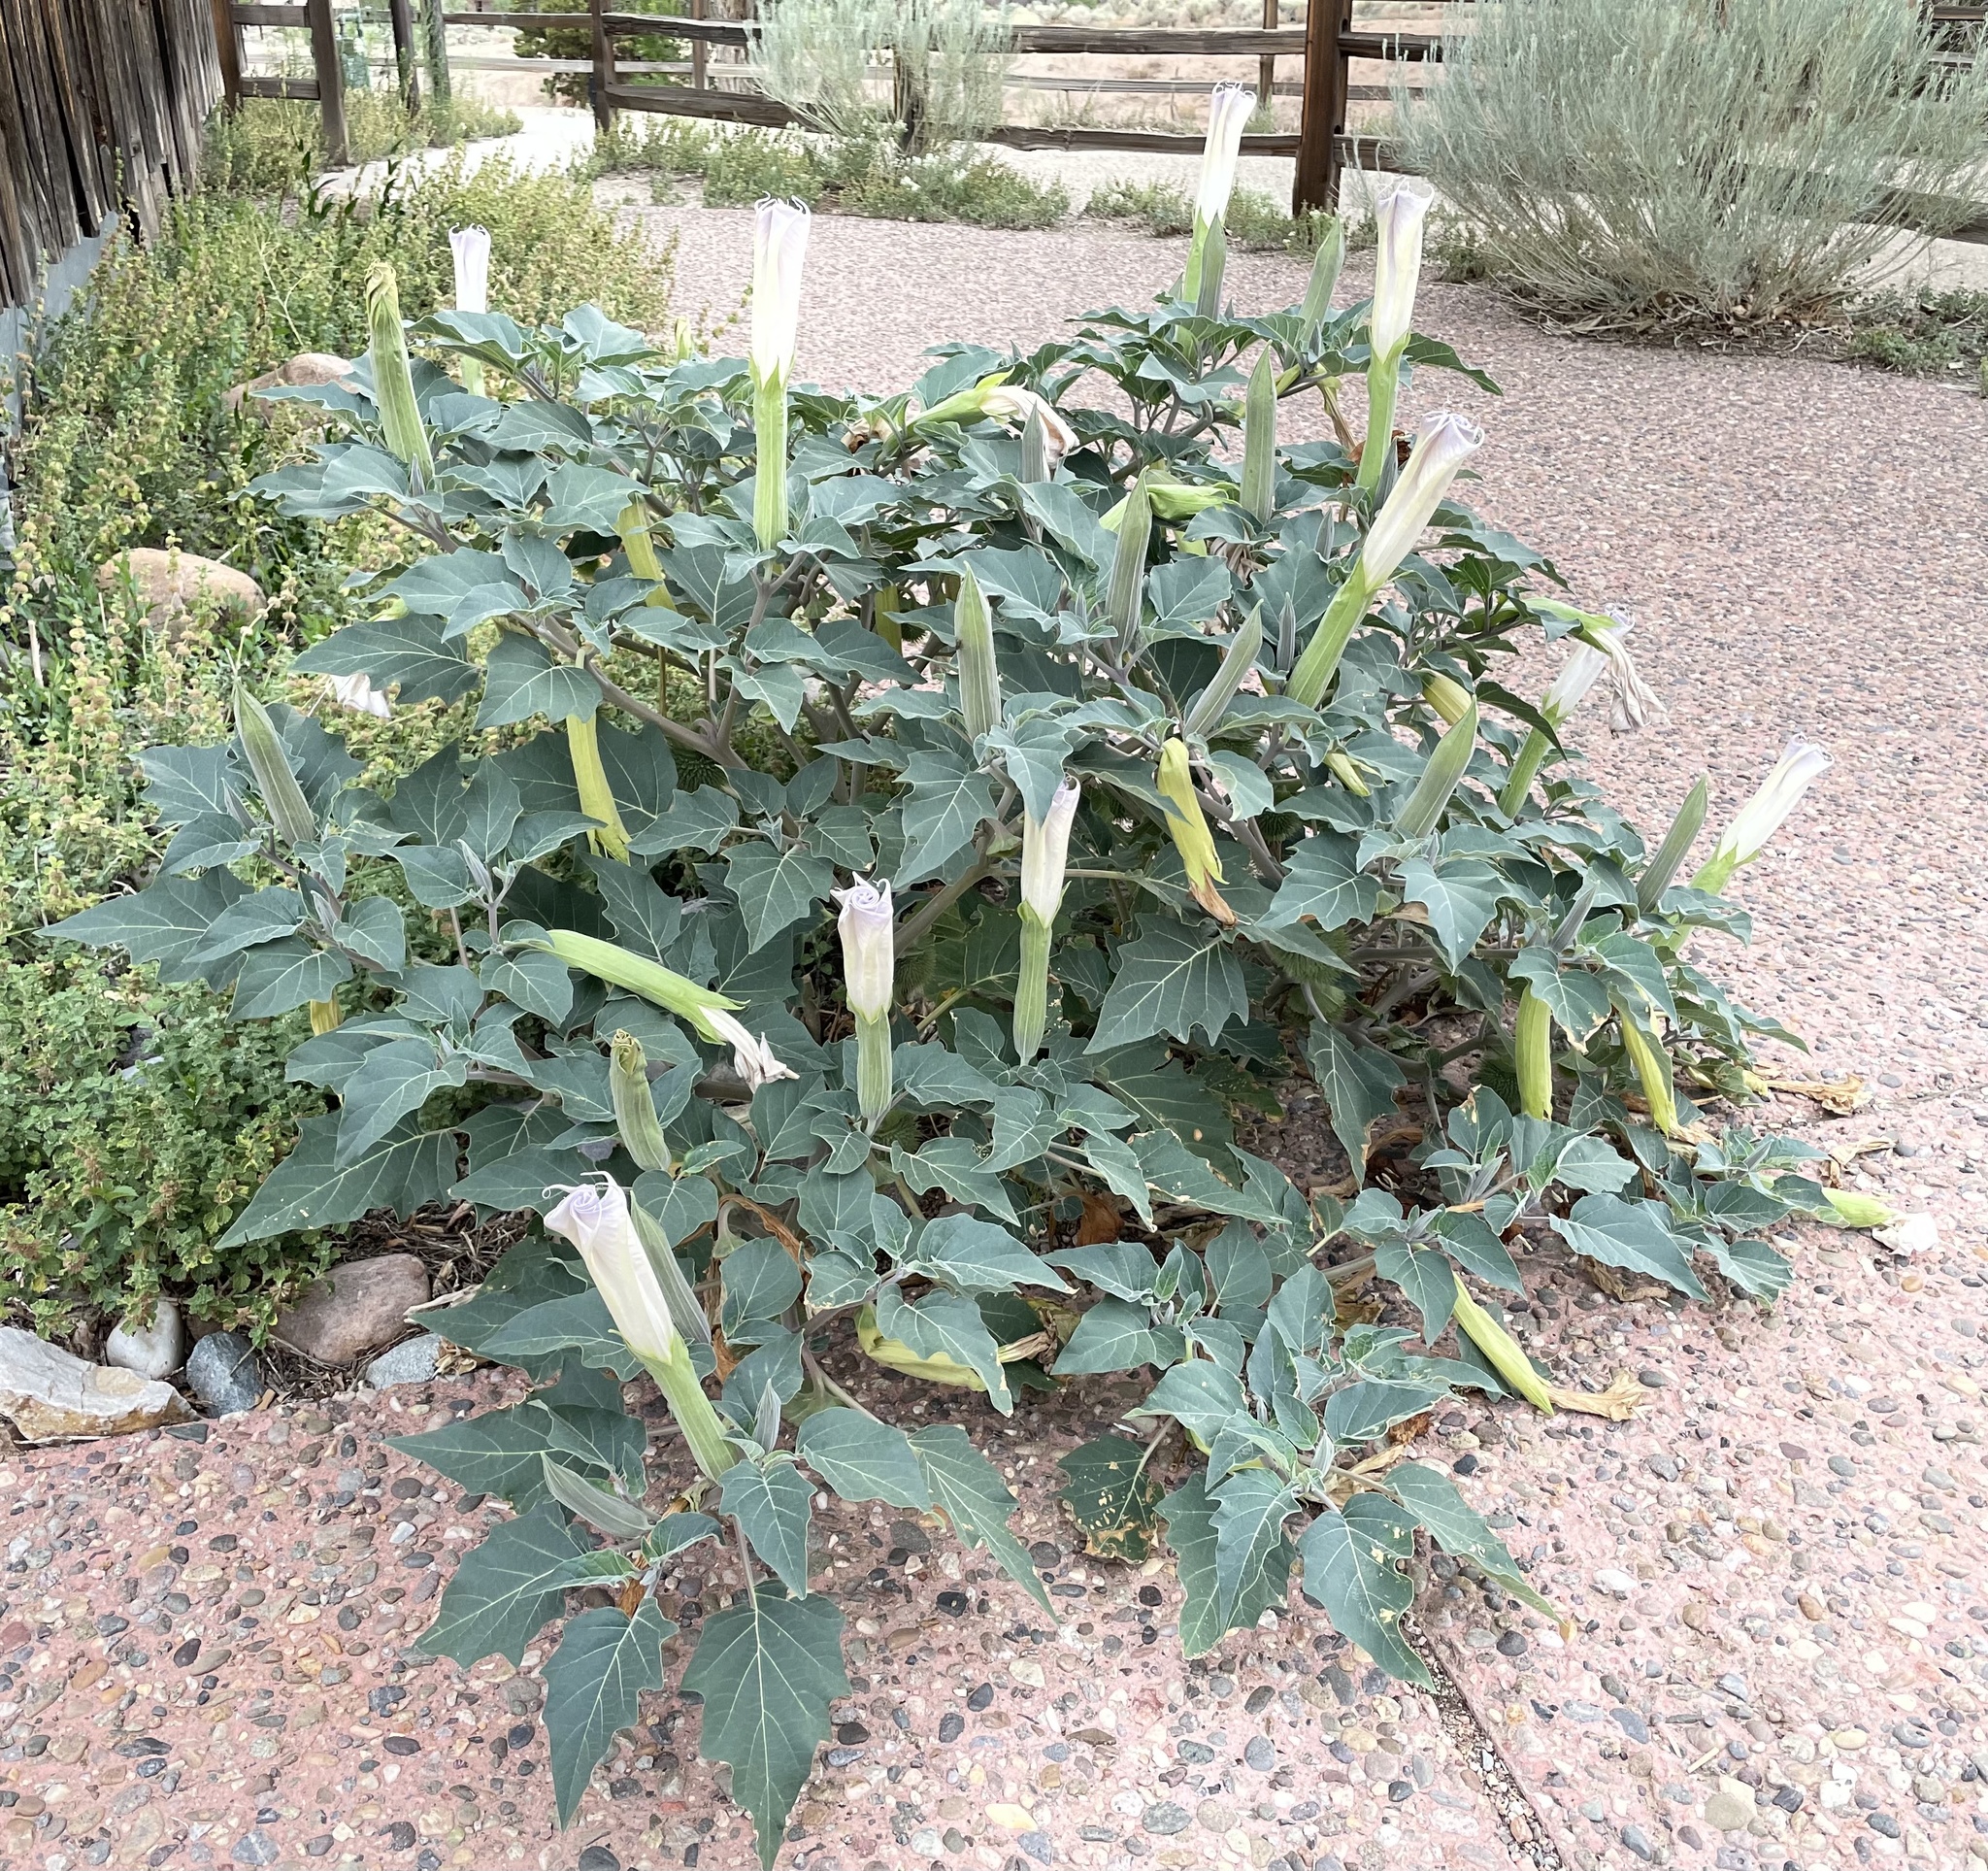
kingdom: Plantae
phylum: Tracheophyta
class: Magnoliopsida
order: Solanales
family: Solanaceae
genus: Datura
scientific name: Datura wrightii
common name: Sacred thorn-apple
